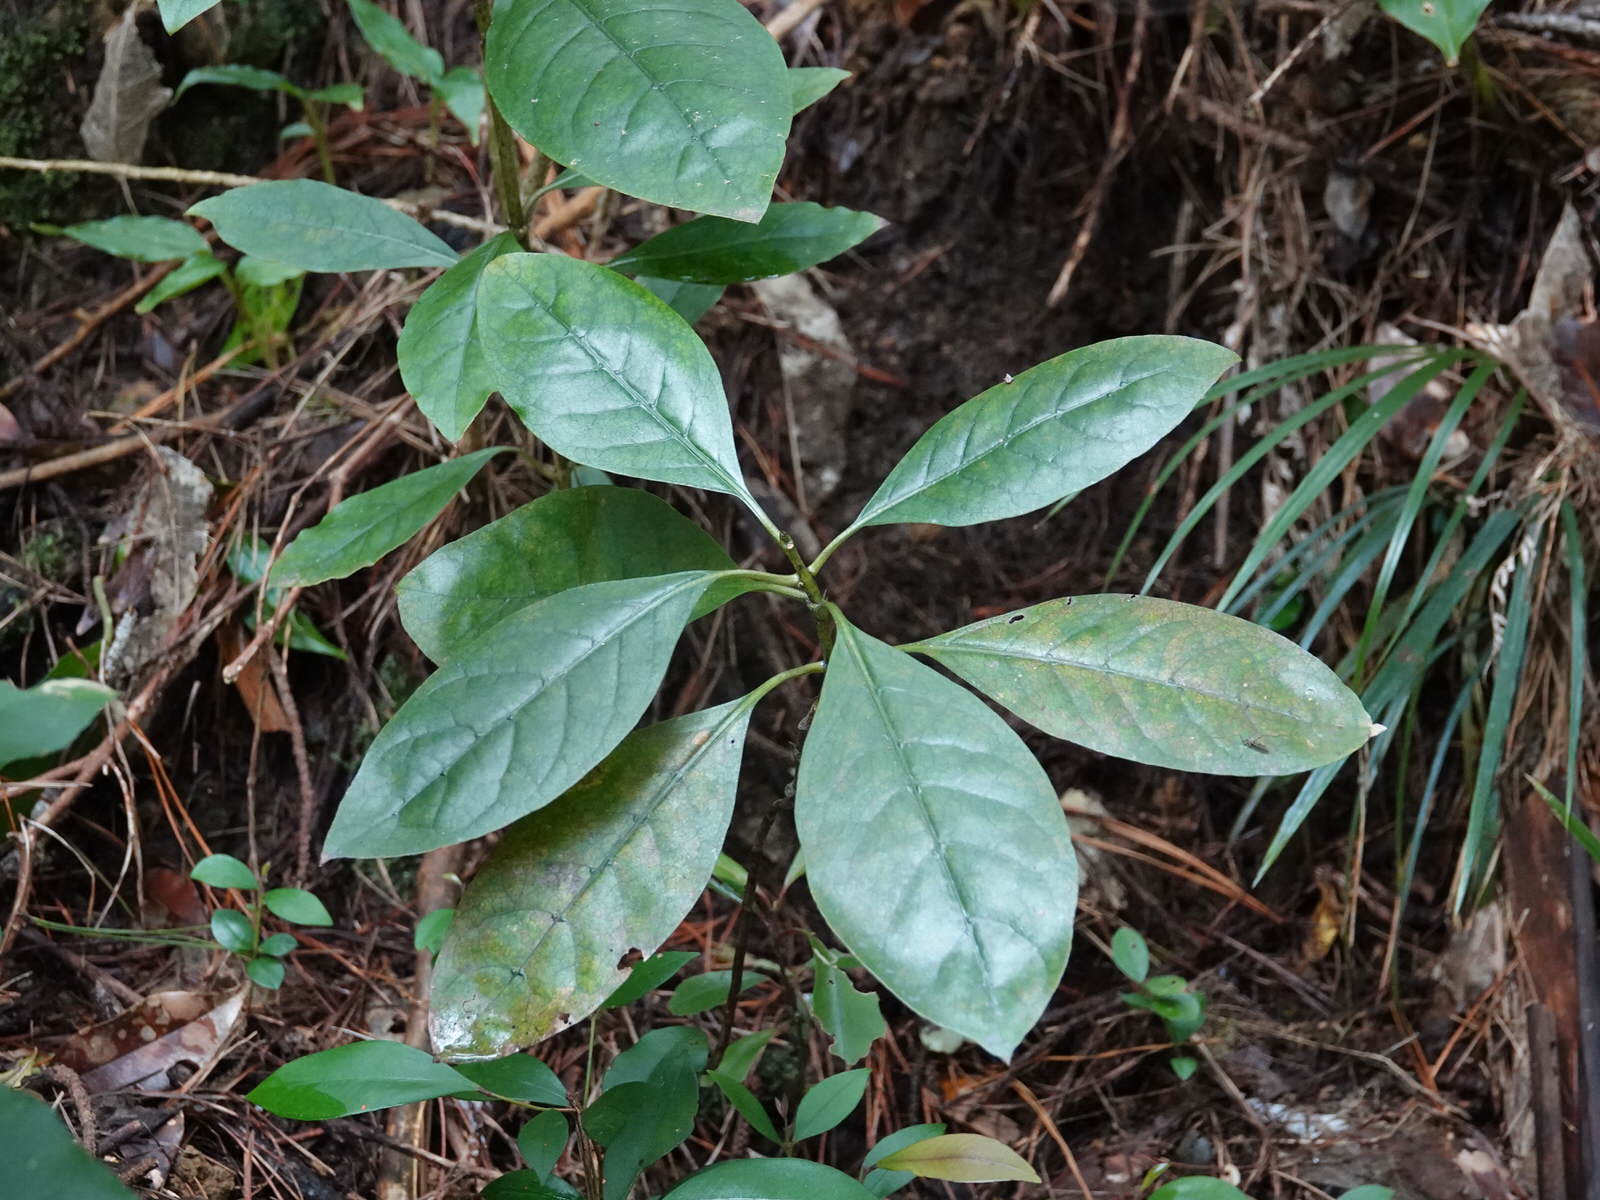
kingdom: Plantae
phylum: Tracheophyta
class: Magnoliopsida
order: Gentianales
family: Rubiaceae
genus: Coprosma
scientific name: Coprosma autumnalis
